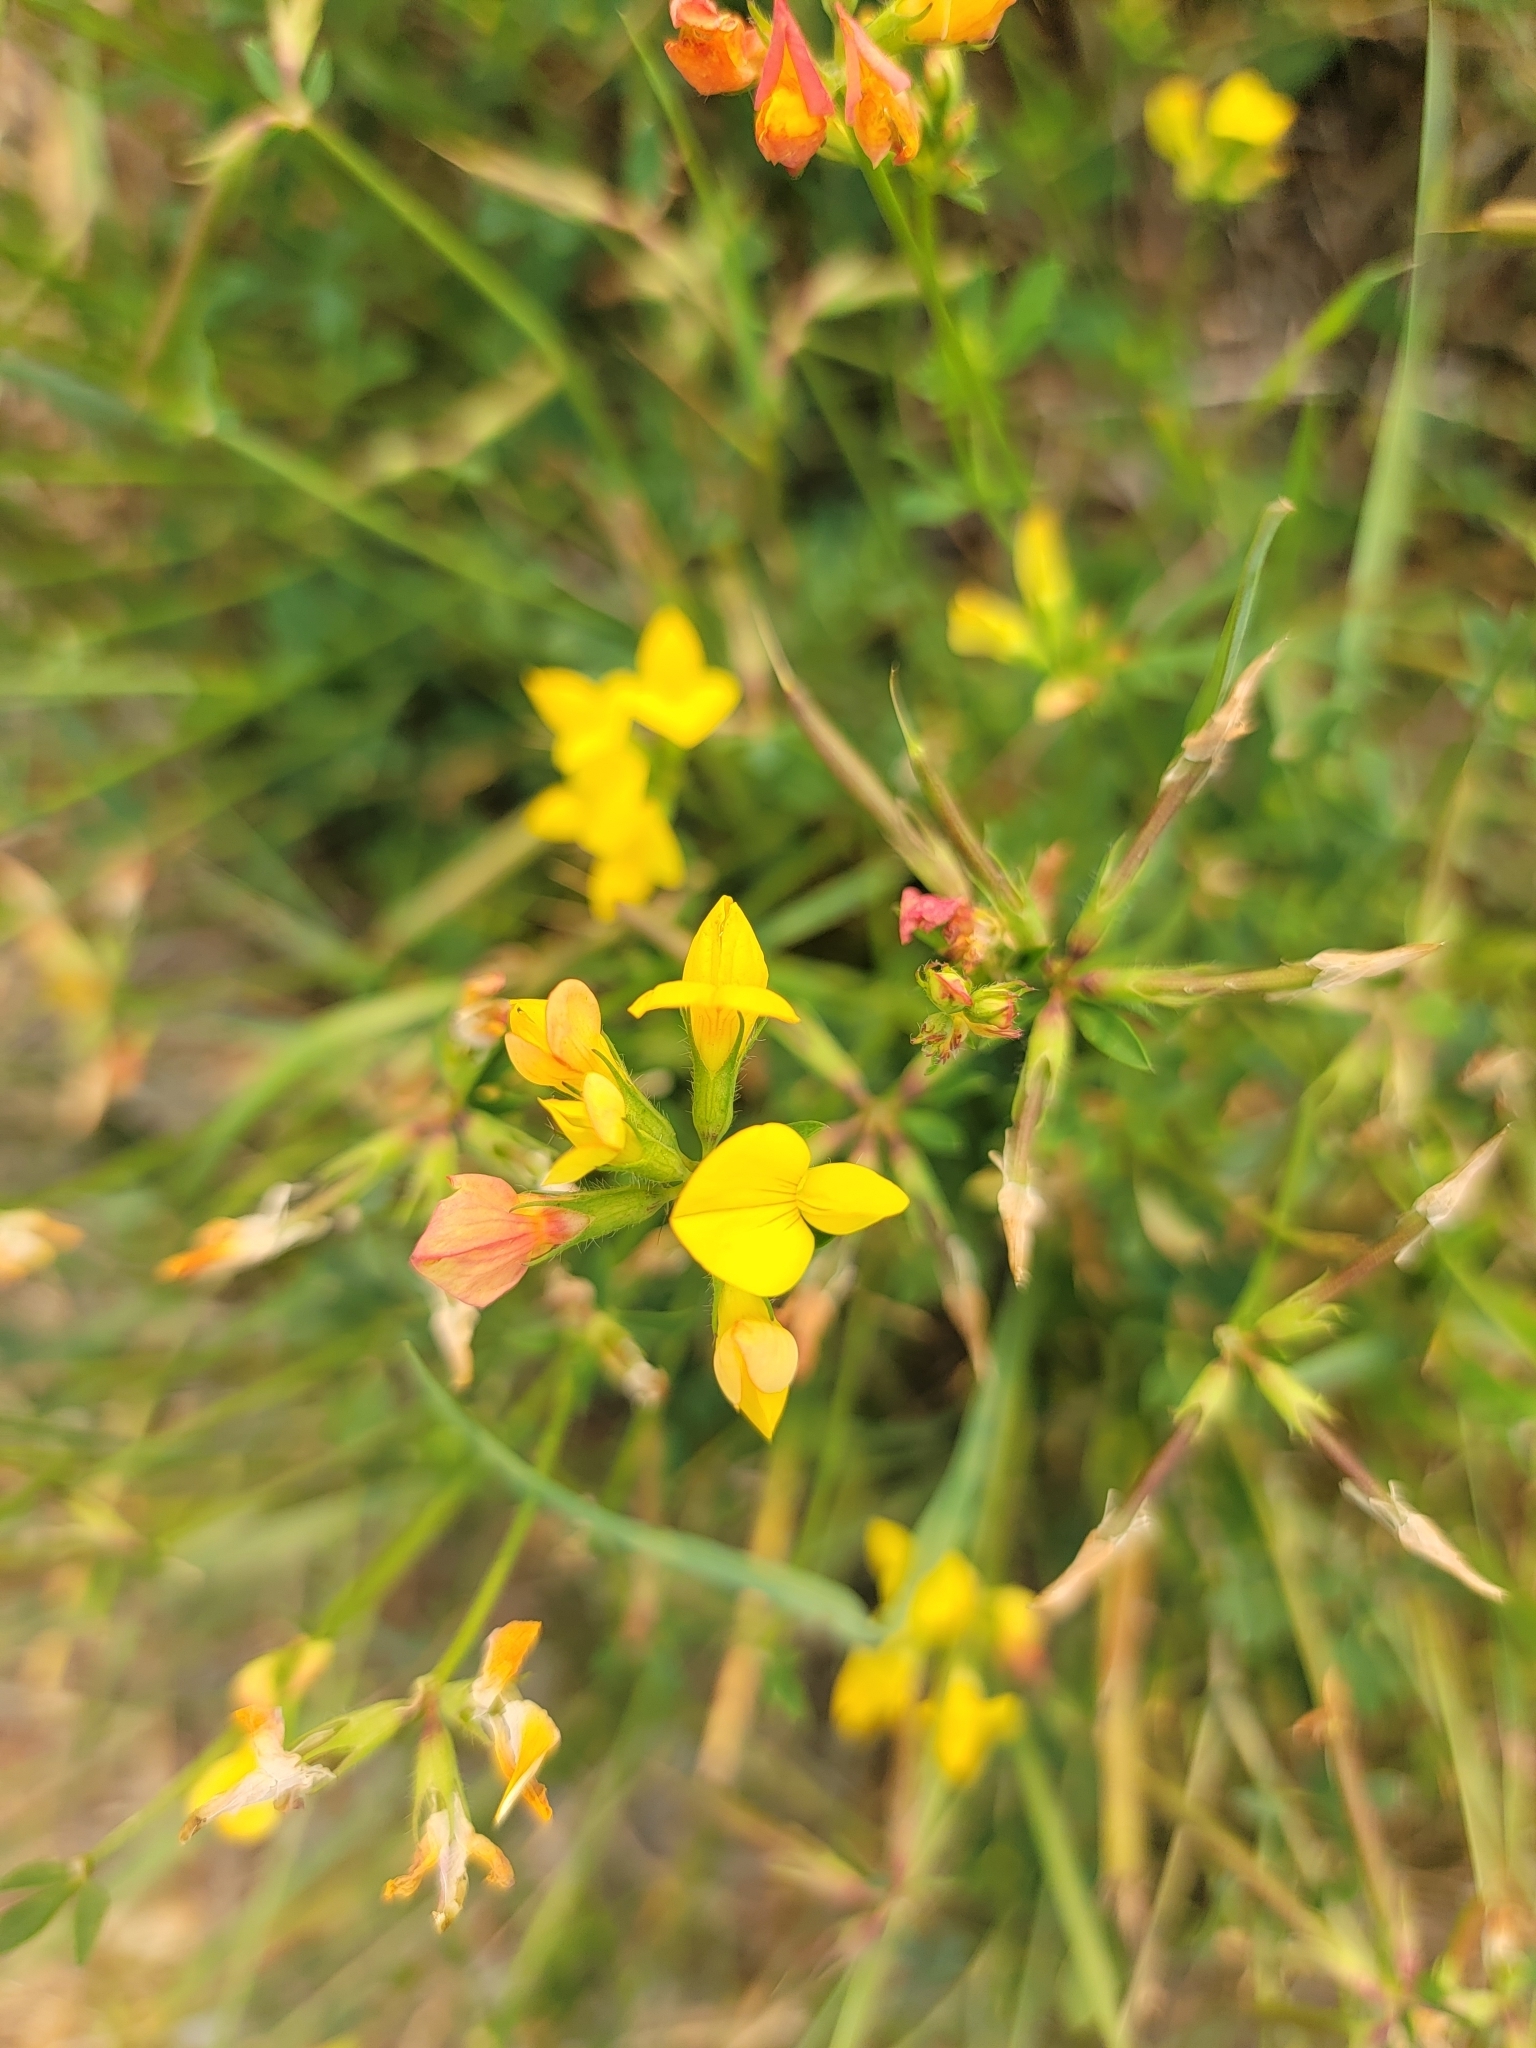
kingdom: Plantae
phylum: Tracheophyta
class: Magnoliopsida
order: Fabales
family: Fabaceae
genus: Lotus
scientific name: Lotus corniculatus
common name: Common bird's-foot-trefoil
